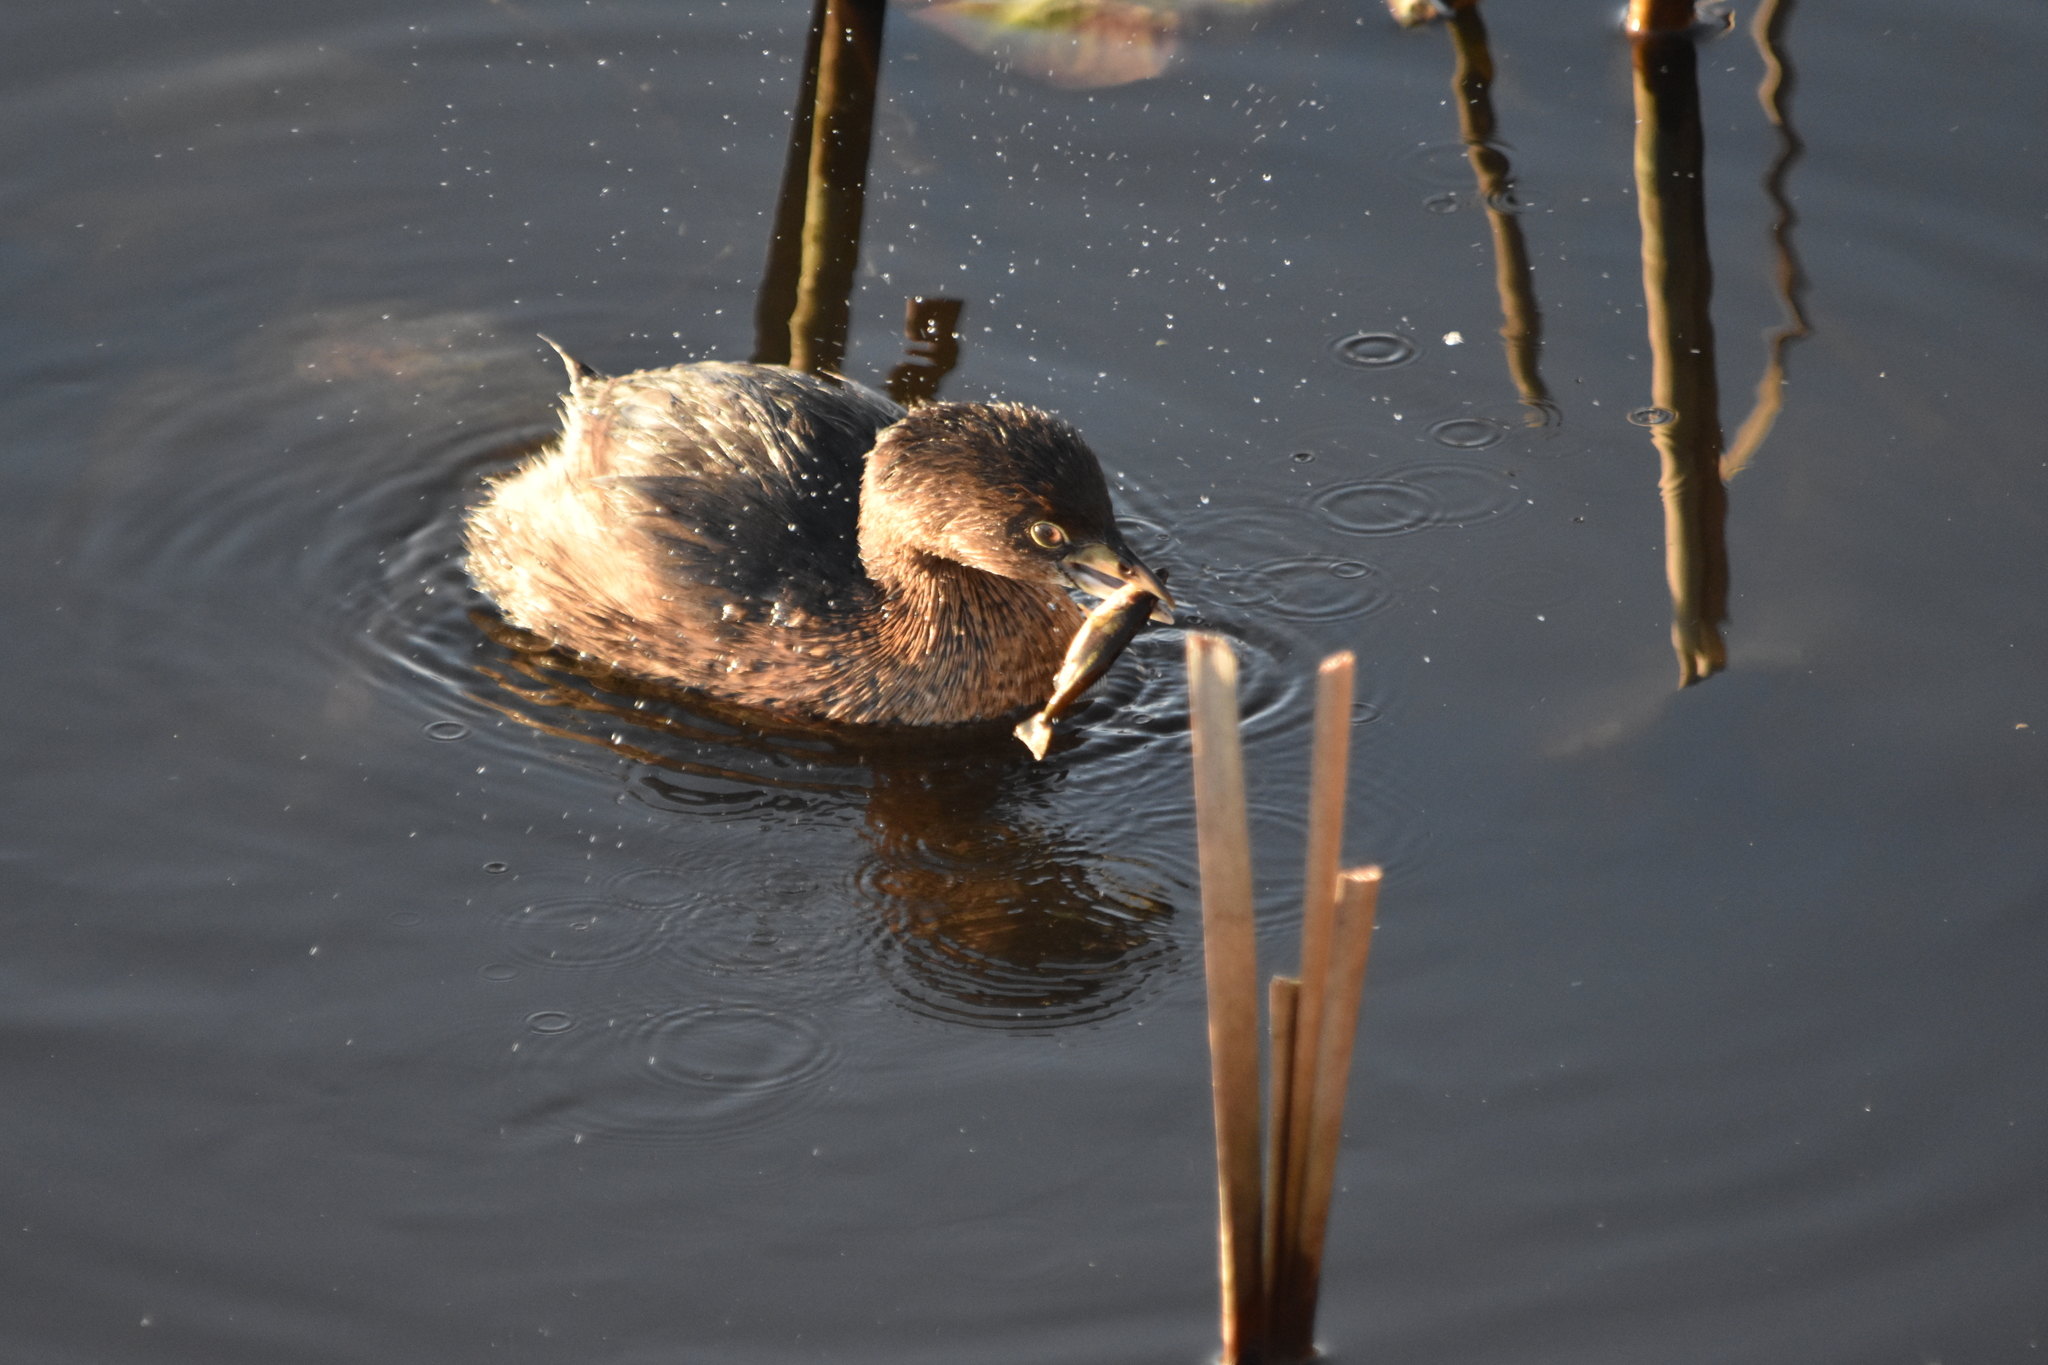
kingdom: Animalia
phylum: Chordata
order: Gasterosteiformes
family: Gasterosteidae
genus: Gasterosteus
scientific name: Gasterosteus aculeatus
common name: Three-spined stickleback
